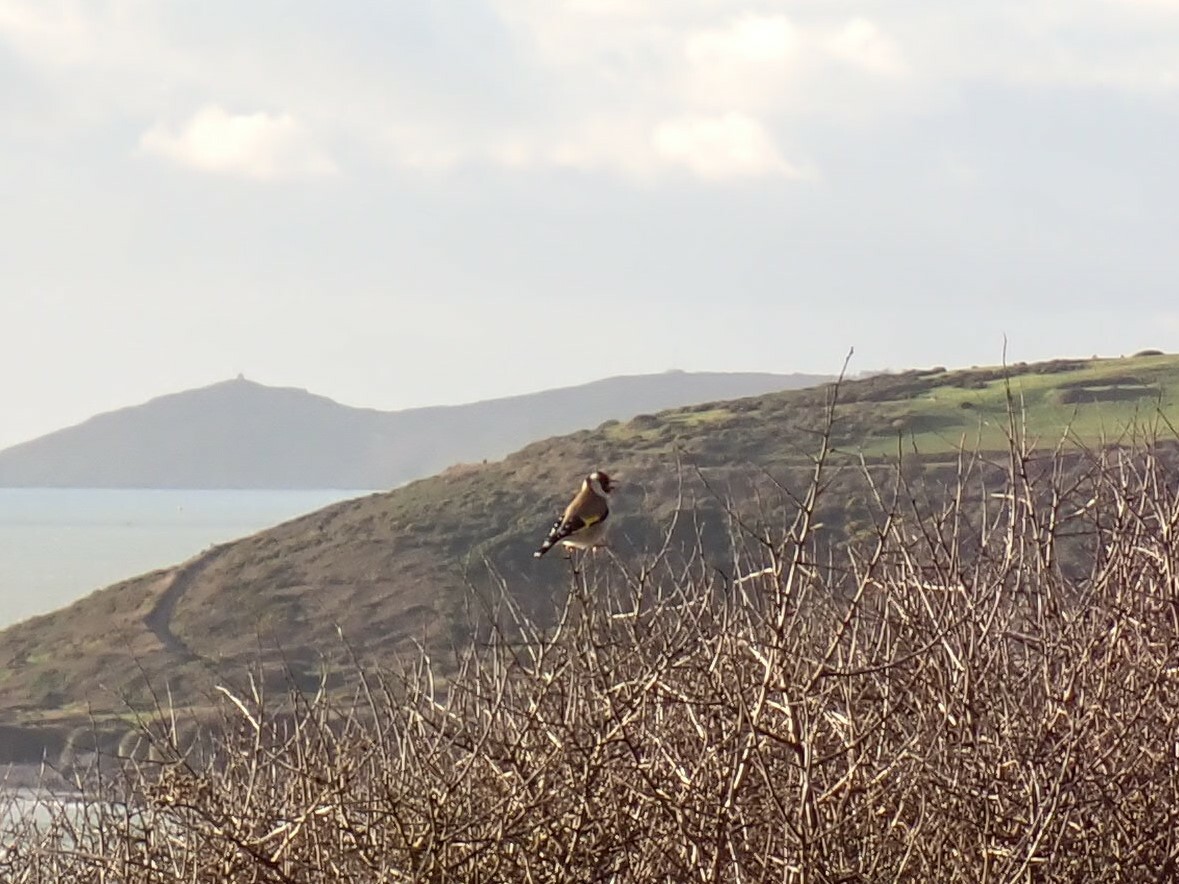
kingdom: Animalia
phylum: Chordata
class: Aves
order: Passeriformes
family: Fringillidae
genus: Carduelis
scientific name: Carduelis carduelis
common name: European goldfinch
